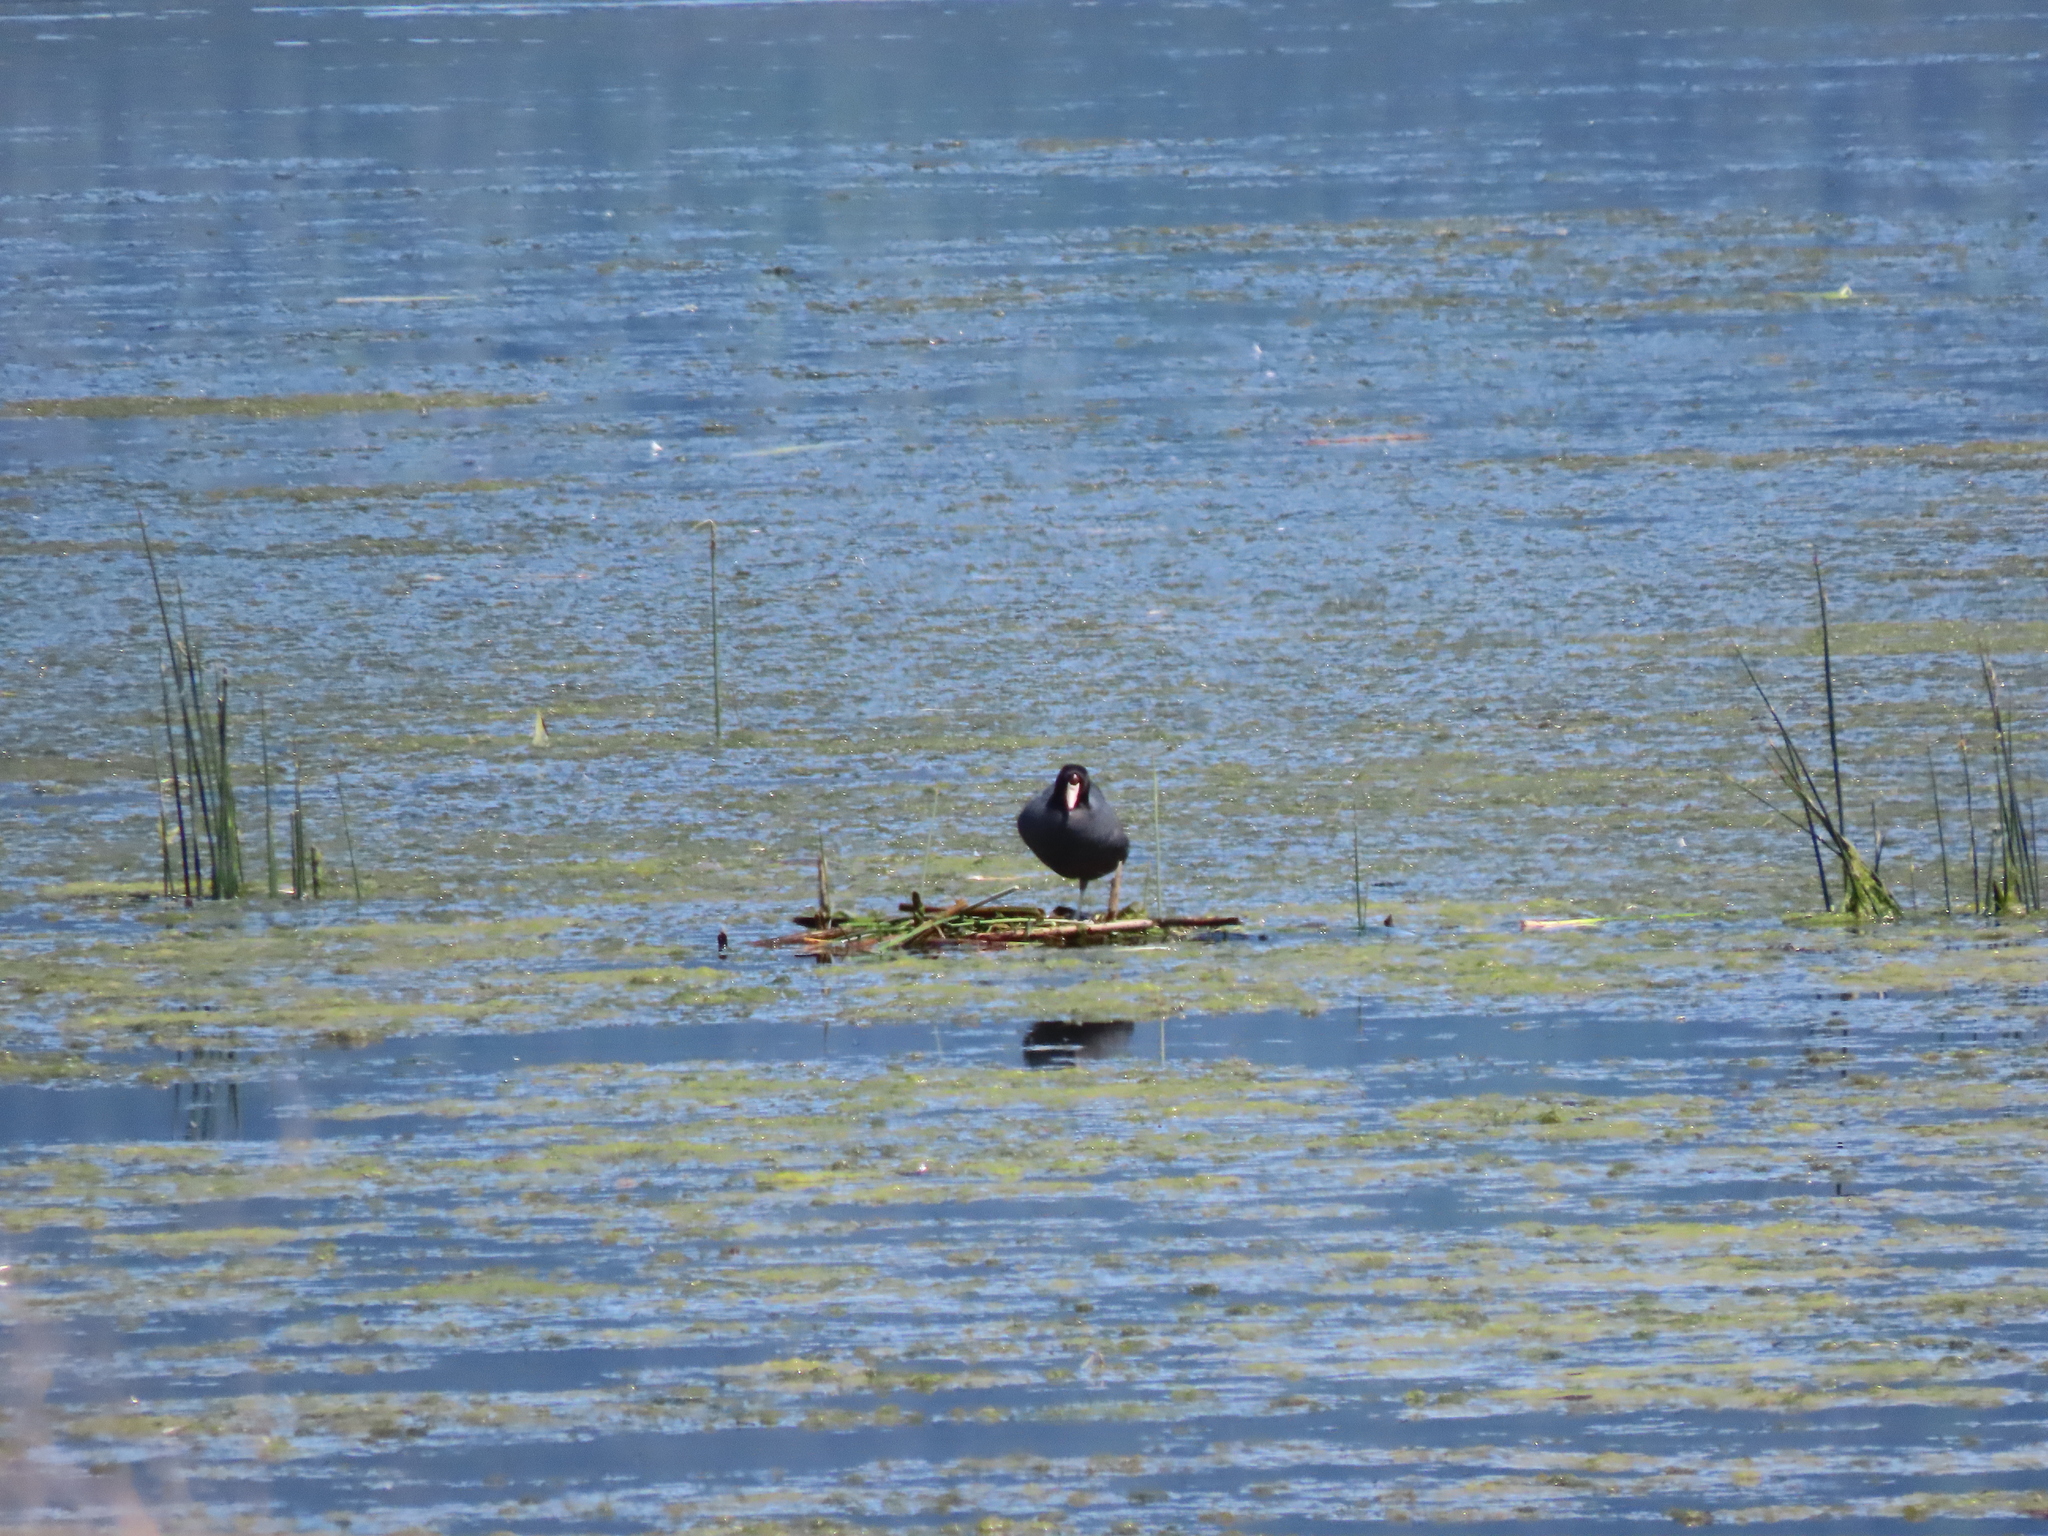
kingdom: Animalia
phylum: Chordata
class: Aves
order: Gruiformes
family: Rallidae
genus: Fulica
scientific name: Fulica americana
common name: American coot
